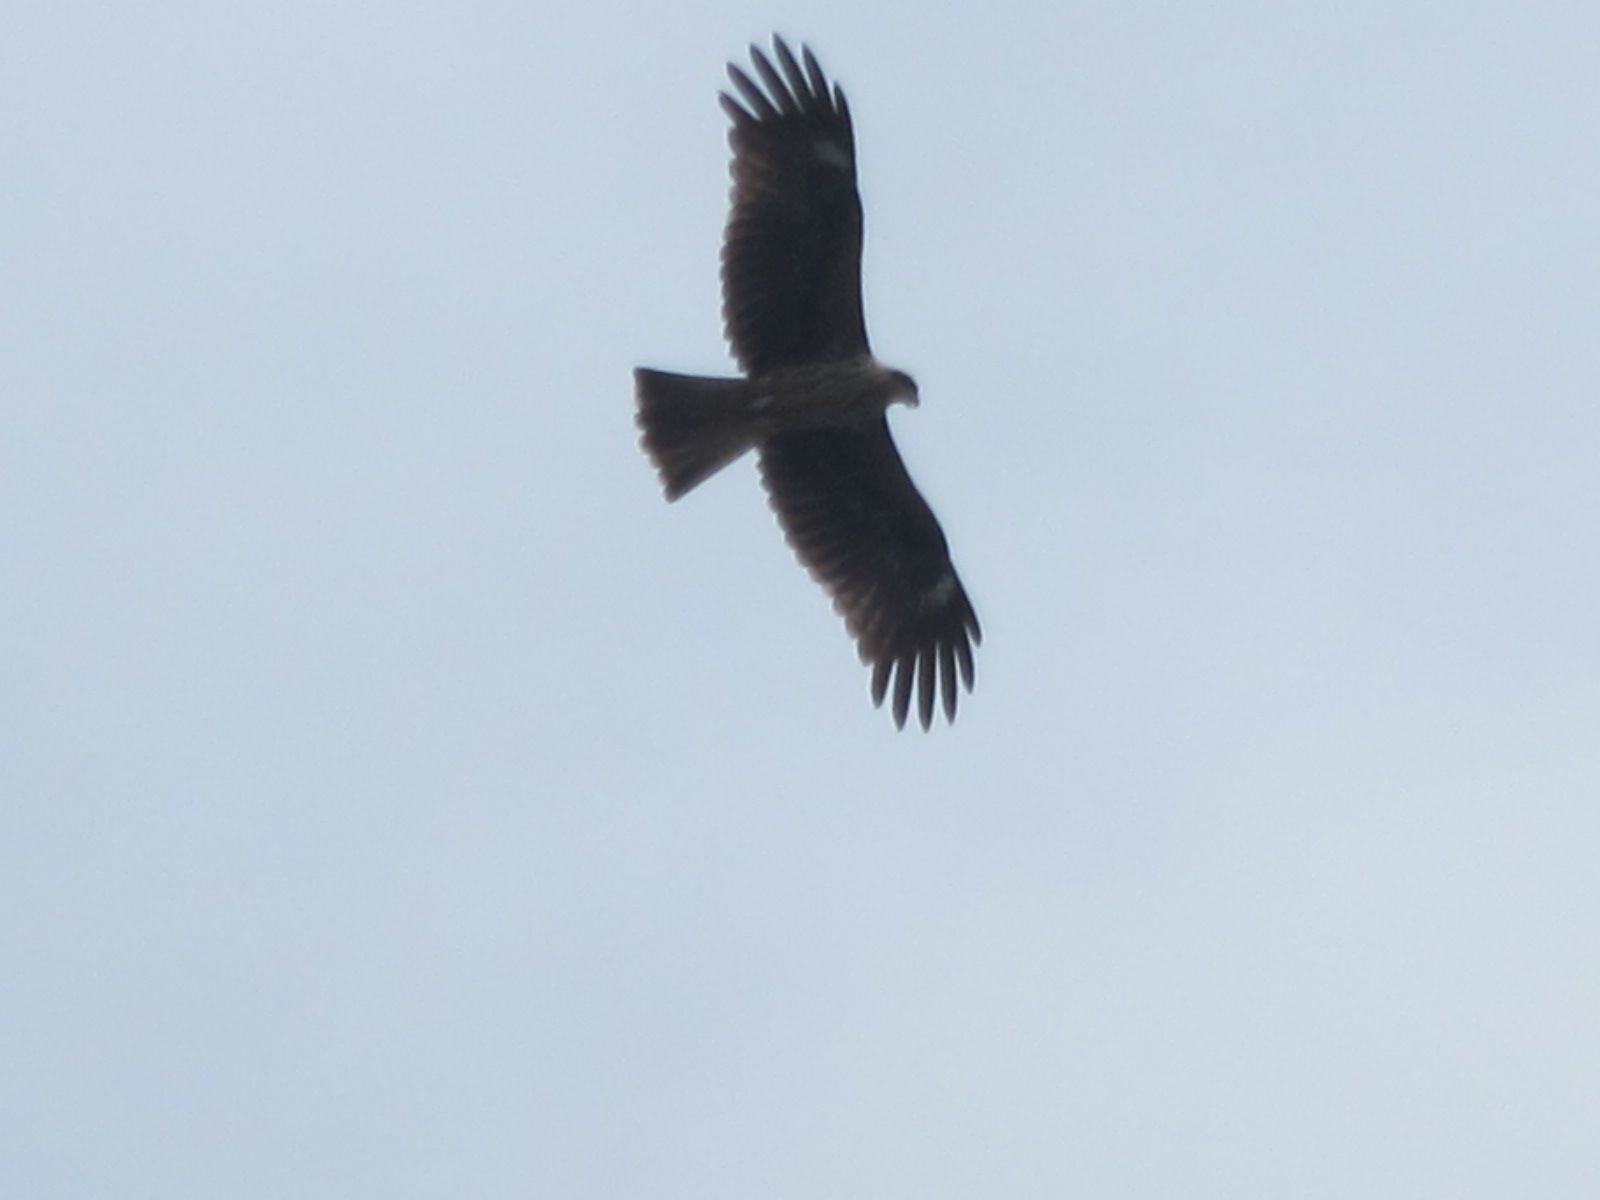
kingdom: Animalia
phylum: Chordata
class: Aves
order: Accipitriformes
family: Accipitridae
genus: Milvus
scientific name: Milvus migrans
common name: Black kite
